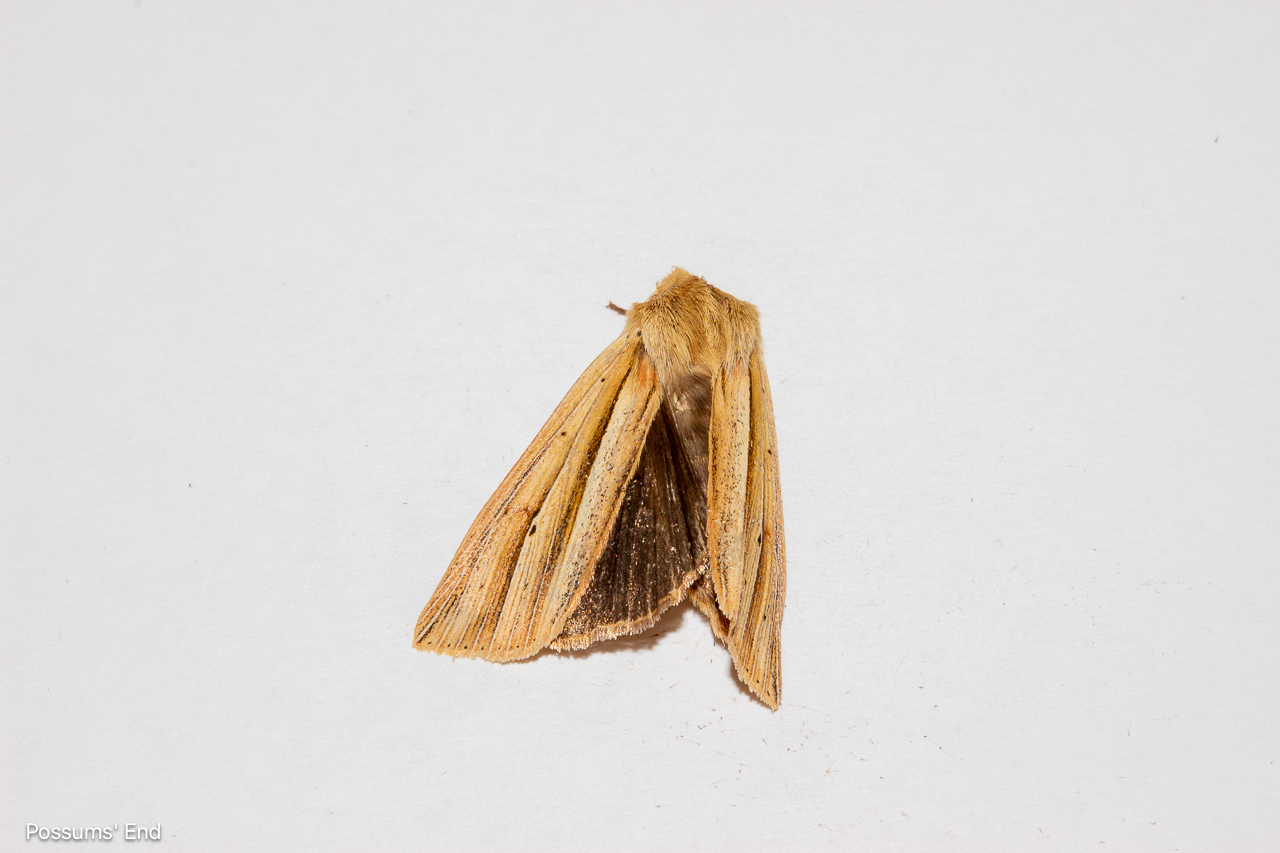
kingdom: Animalia
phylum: Arthropoda
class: Insecta
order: Lepidoptera
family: Noctuidae
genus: Ichneutica
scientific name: Ichneutica sulcana
